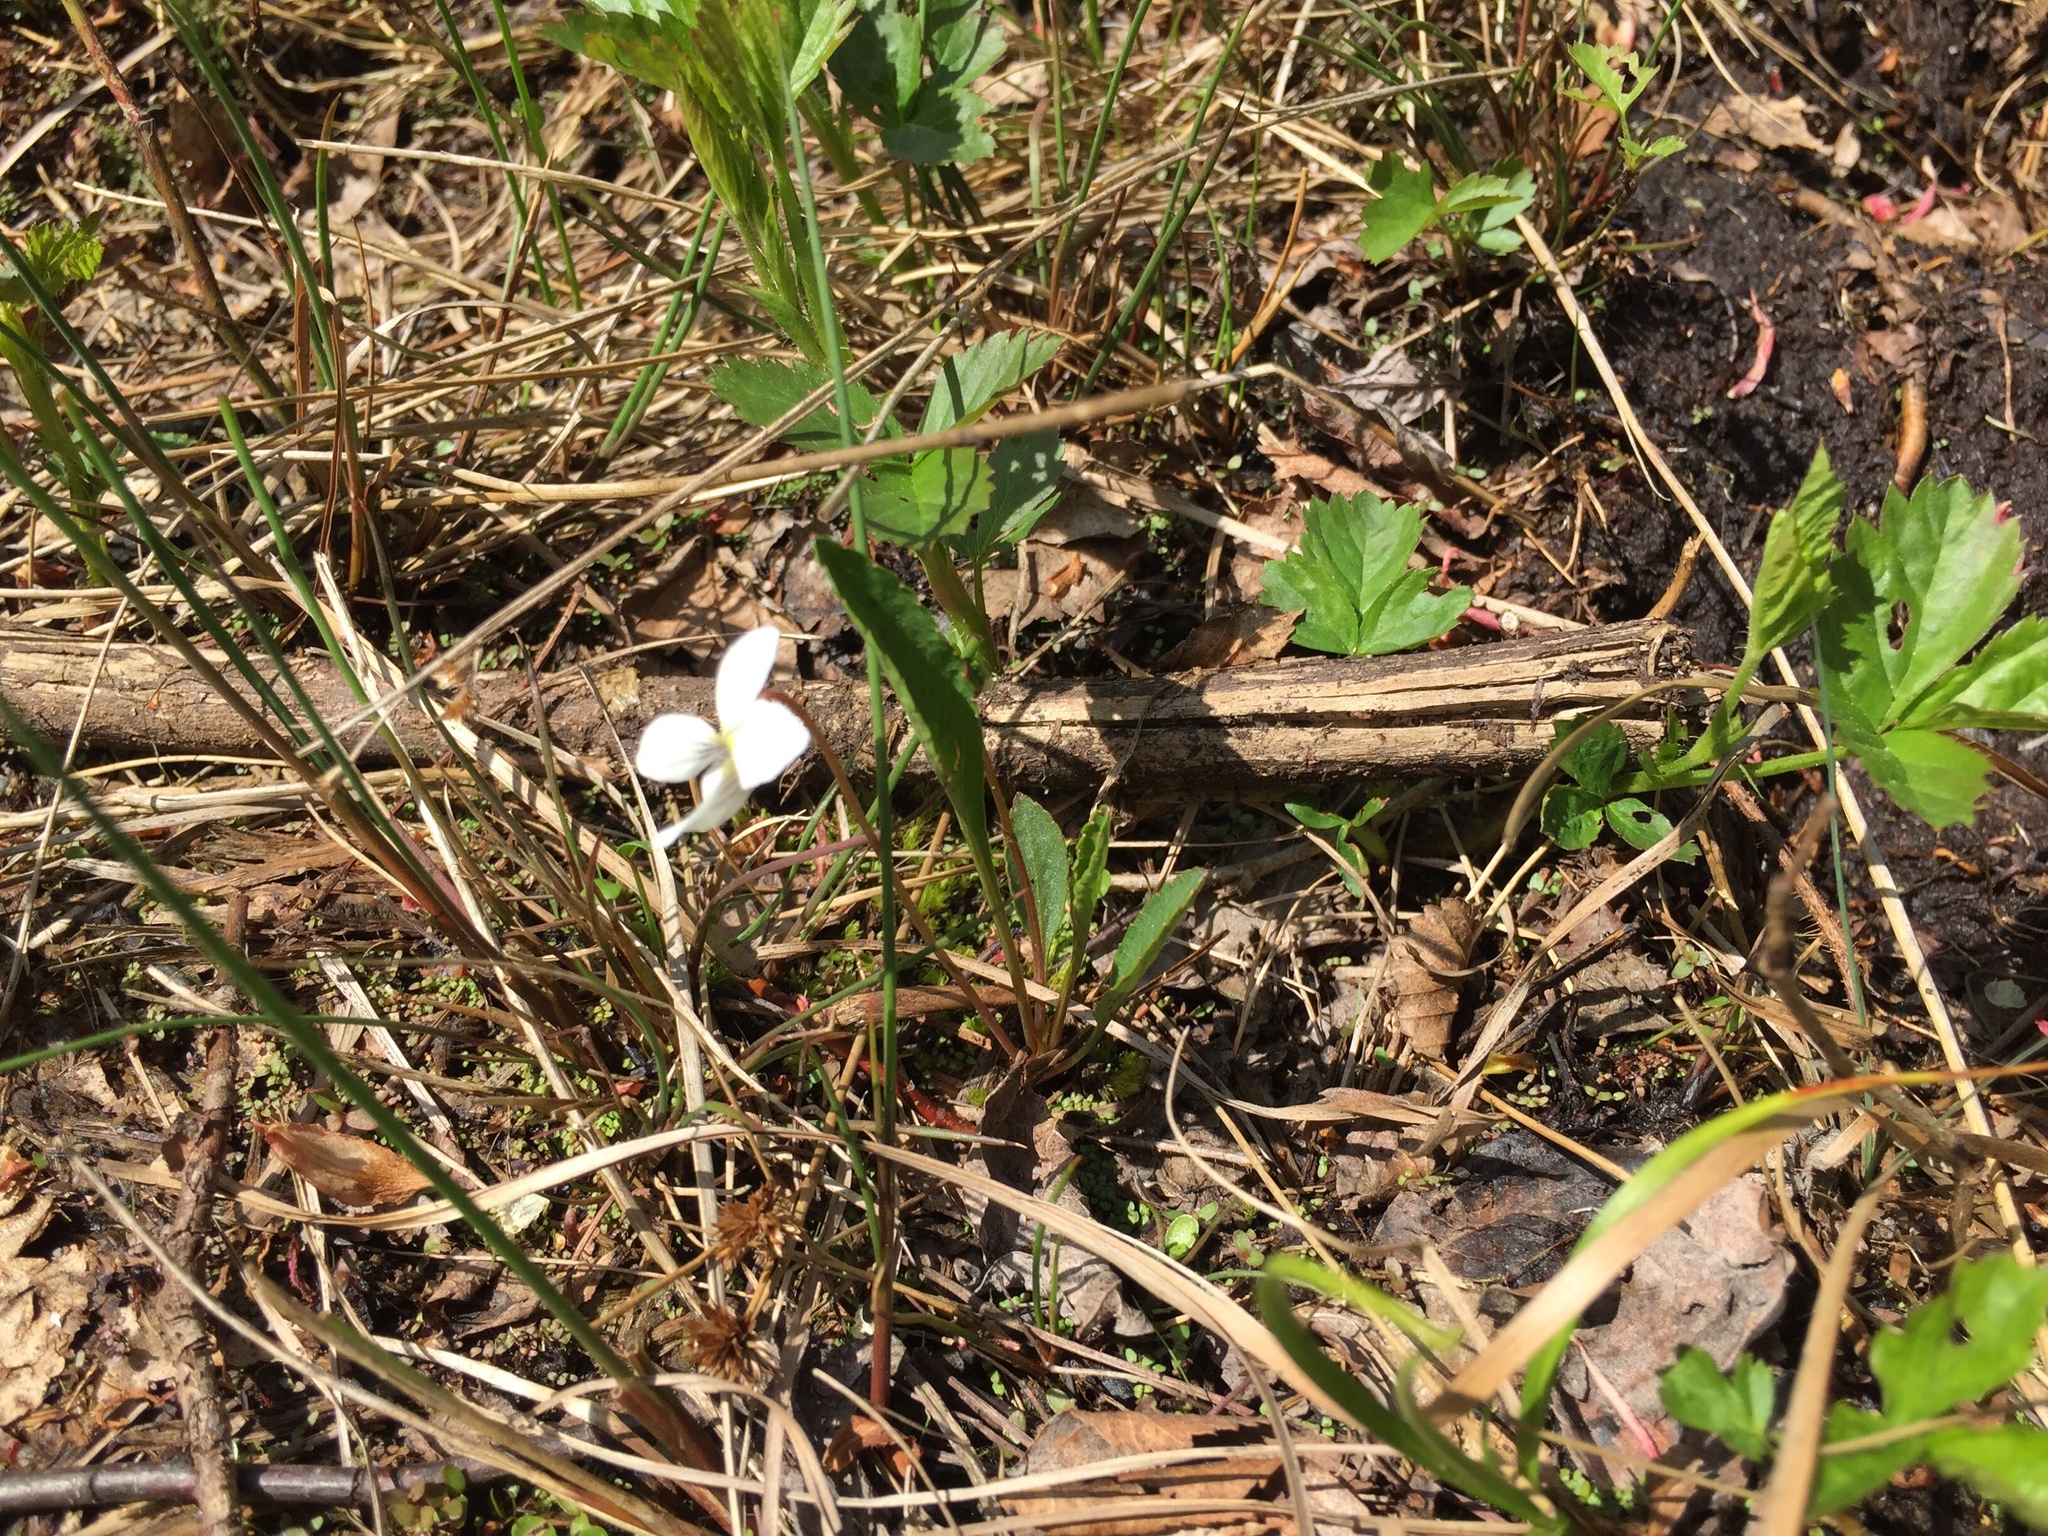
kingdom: Plantae
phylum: Tracheophyta
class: Magnoliopsida
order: Malpighiales
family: Violaceae
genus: Viola
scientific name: Viola lanceolata
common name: Bog white violet
